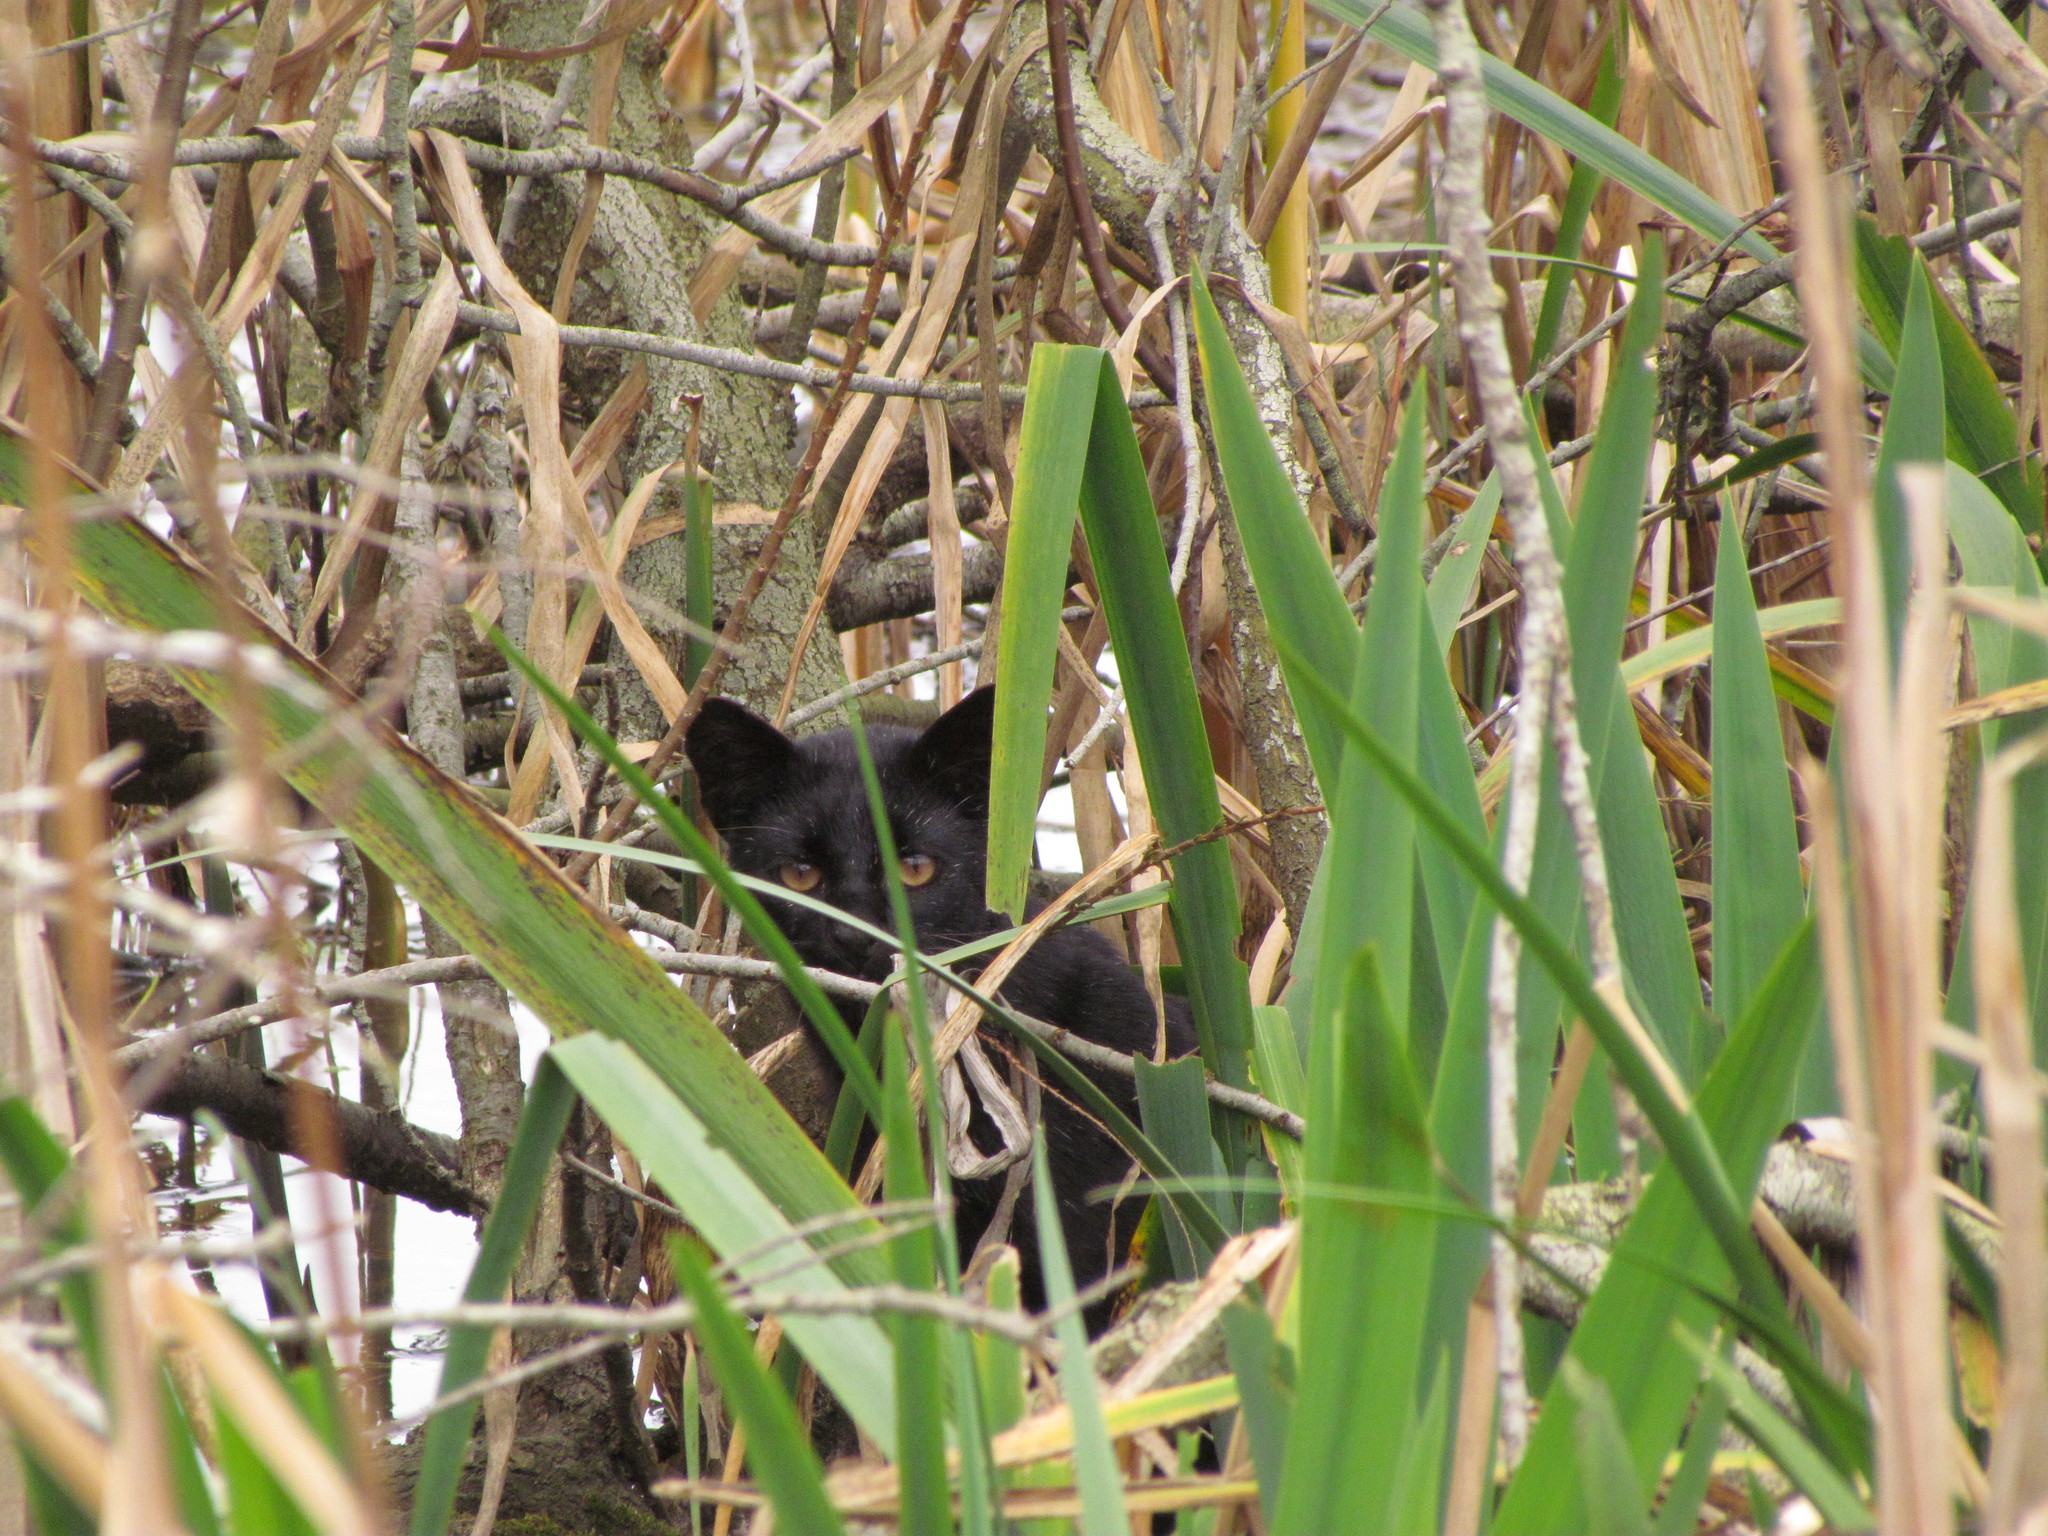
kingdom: Animalia
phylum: Chordata
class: Mammalia
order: Carnivora
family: Felidae
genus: Leopardus
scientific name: Leopardus geoffroyi
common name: Geoffroy's cat
